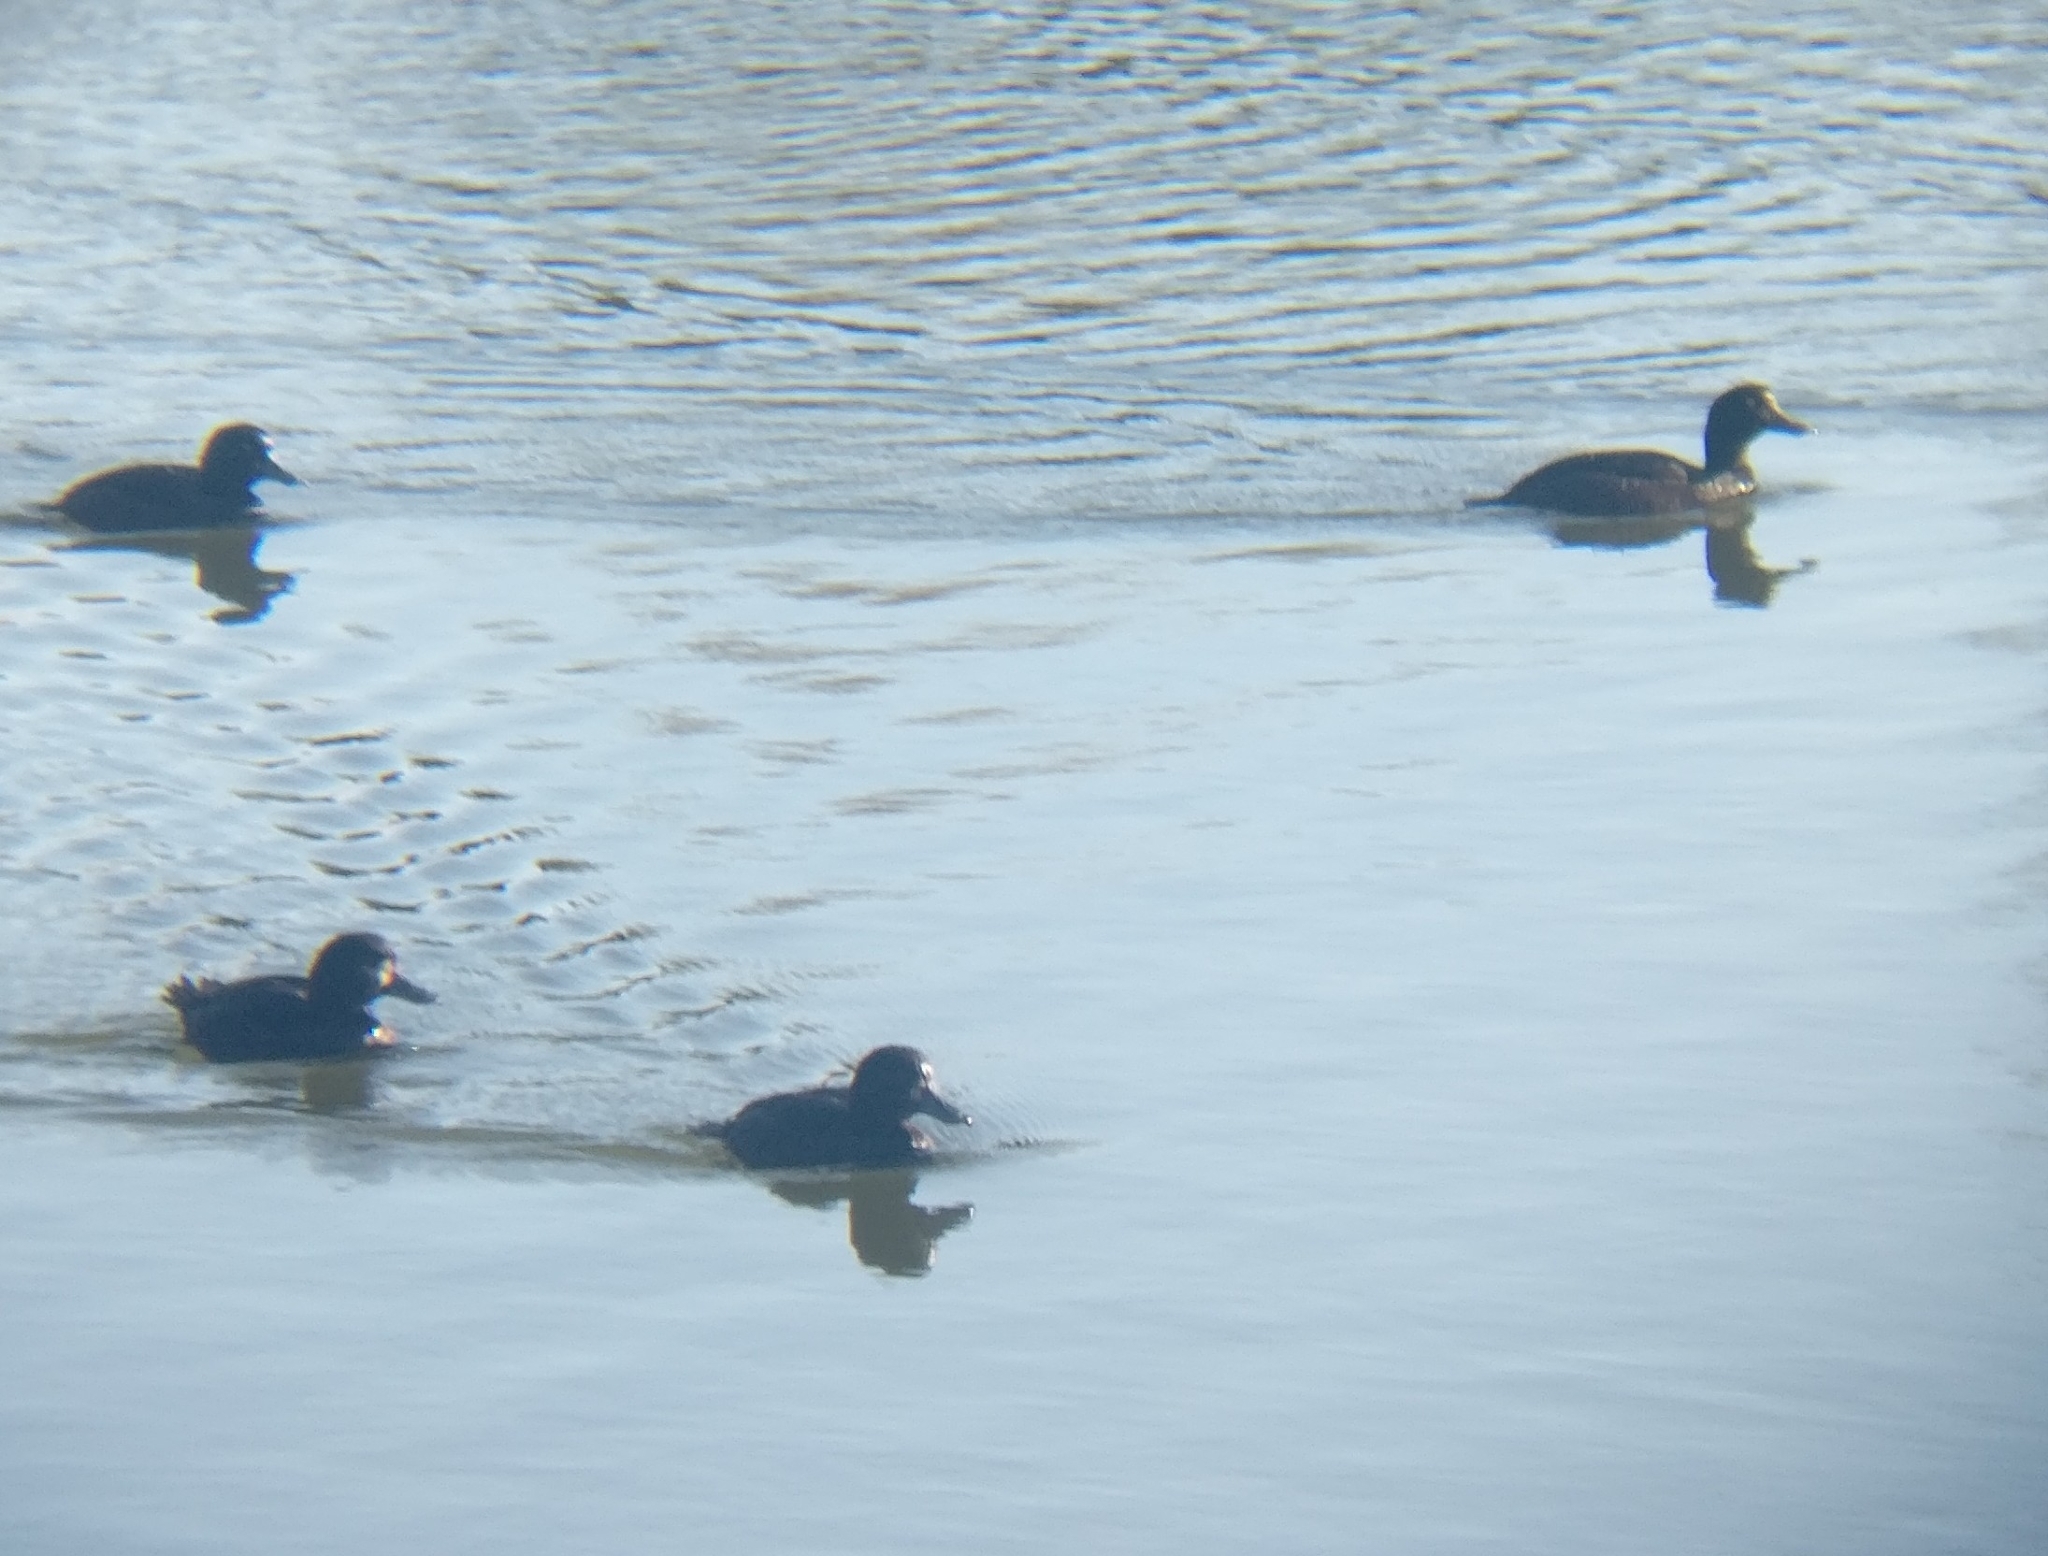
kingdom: Animalia
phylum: Chordata
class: Aves
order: Anseriformes
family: Anatidae
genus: Aythya
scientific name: Aythya novaeseelandiae
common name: New zealand scaup
